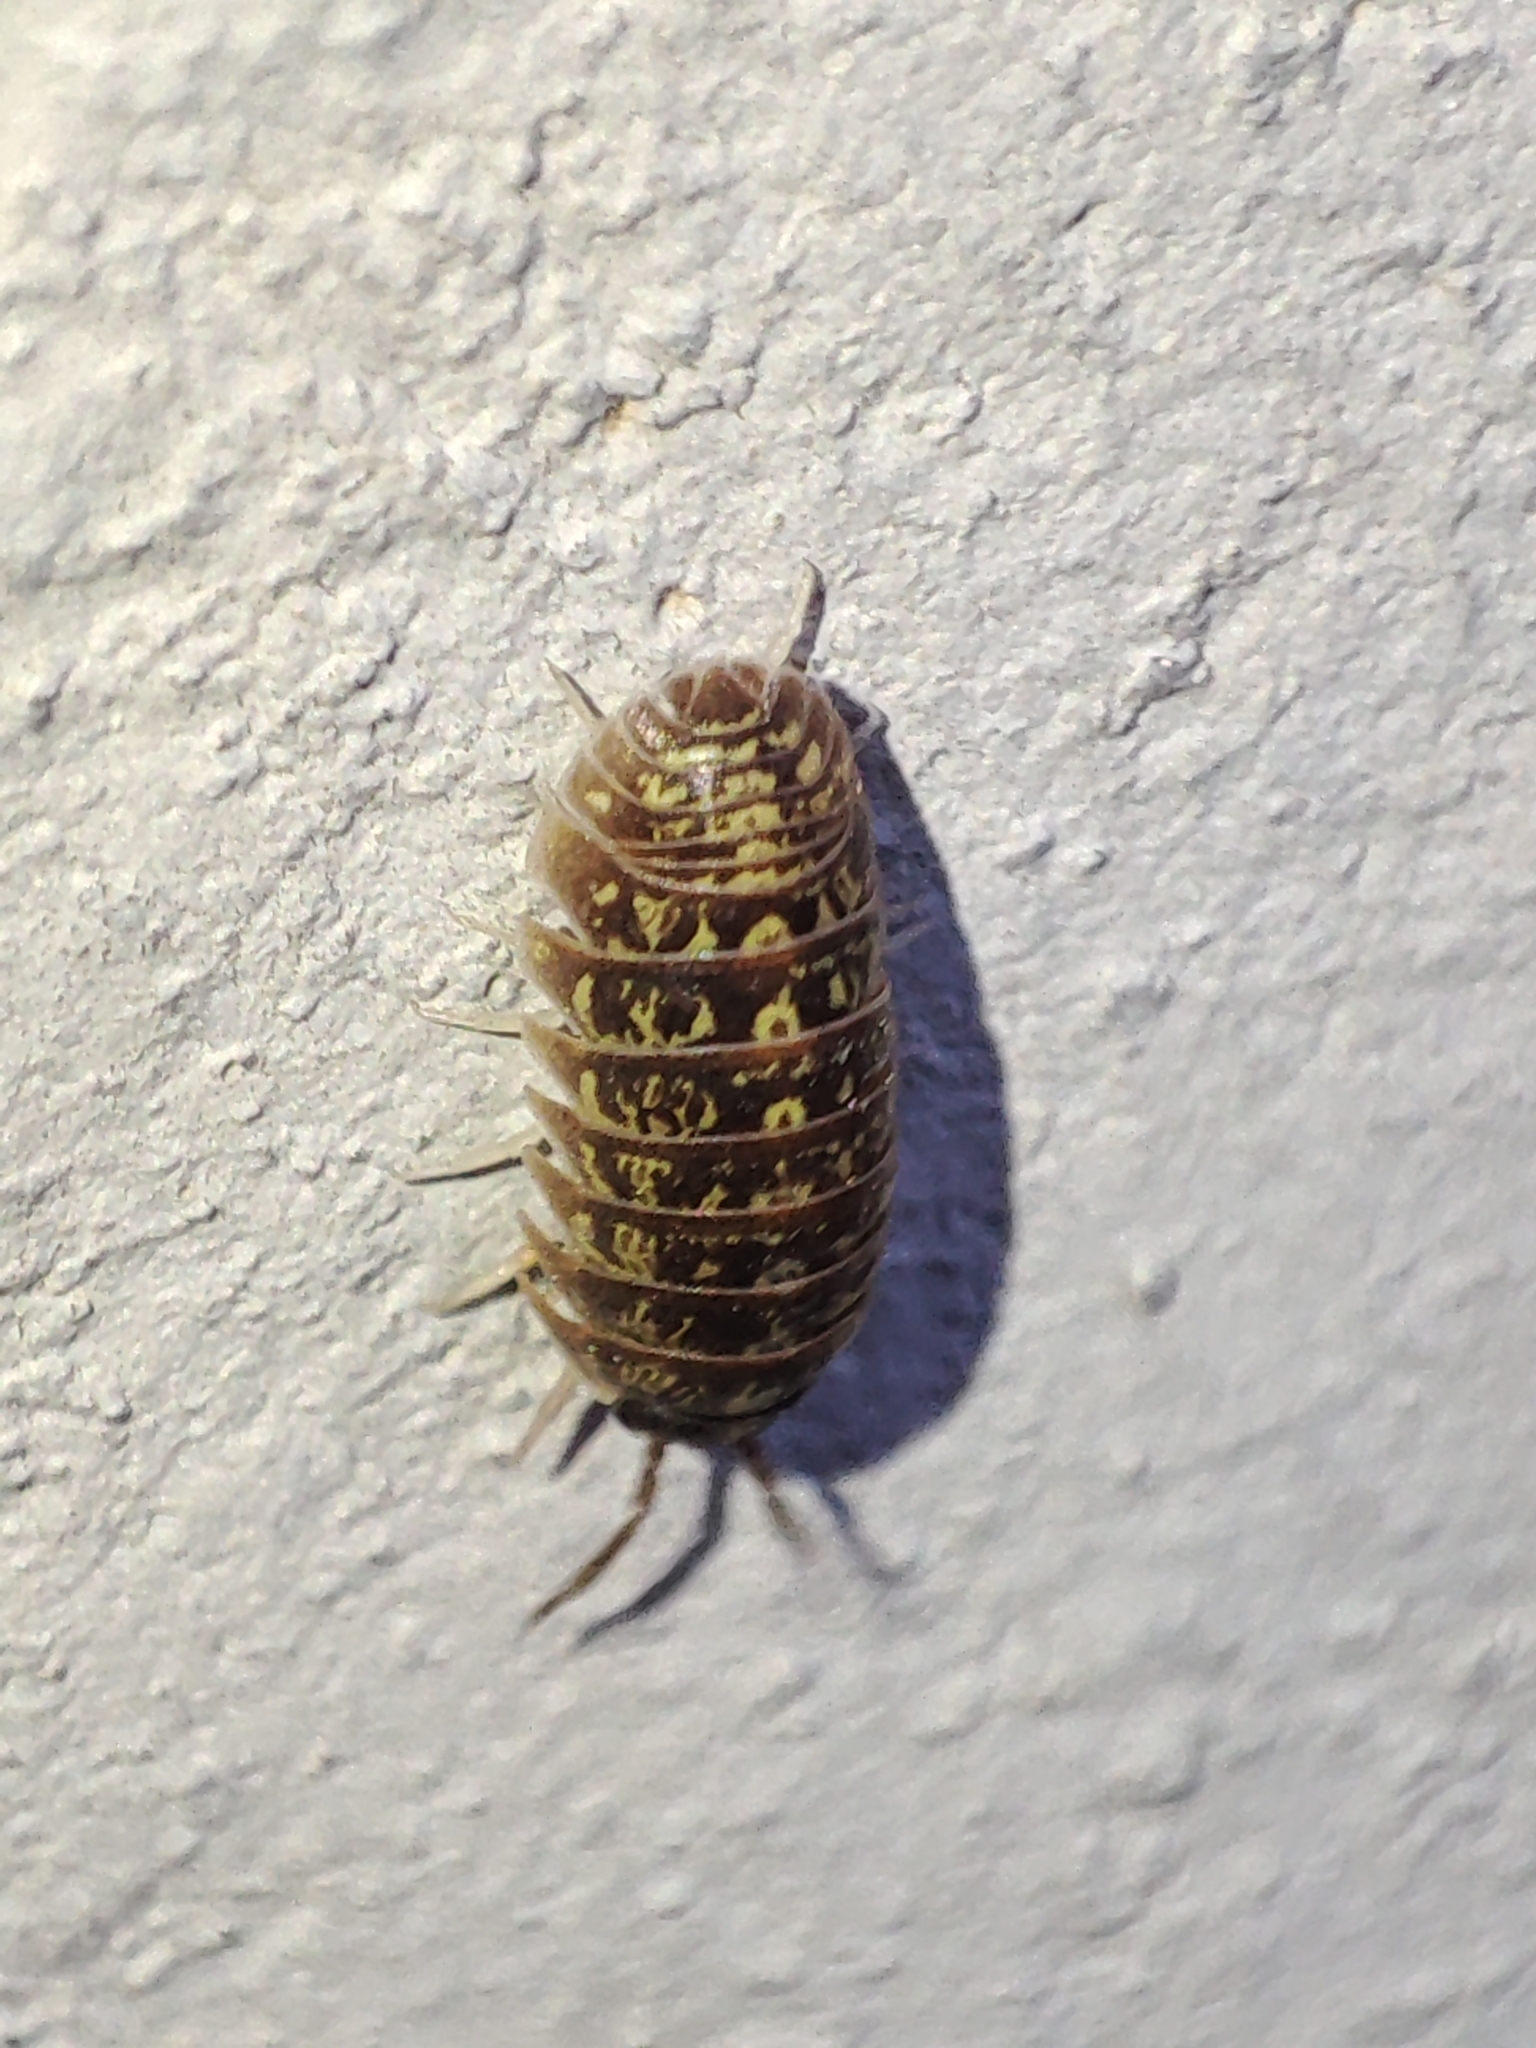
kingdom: Animalia
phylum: Arthropoda
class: Malacostraca
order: Isopoda
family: Armadillidiidae
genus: Armadillidium
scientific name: Armadillidium versicolor
